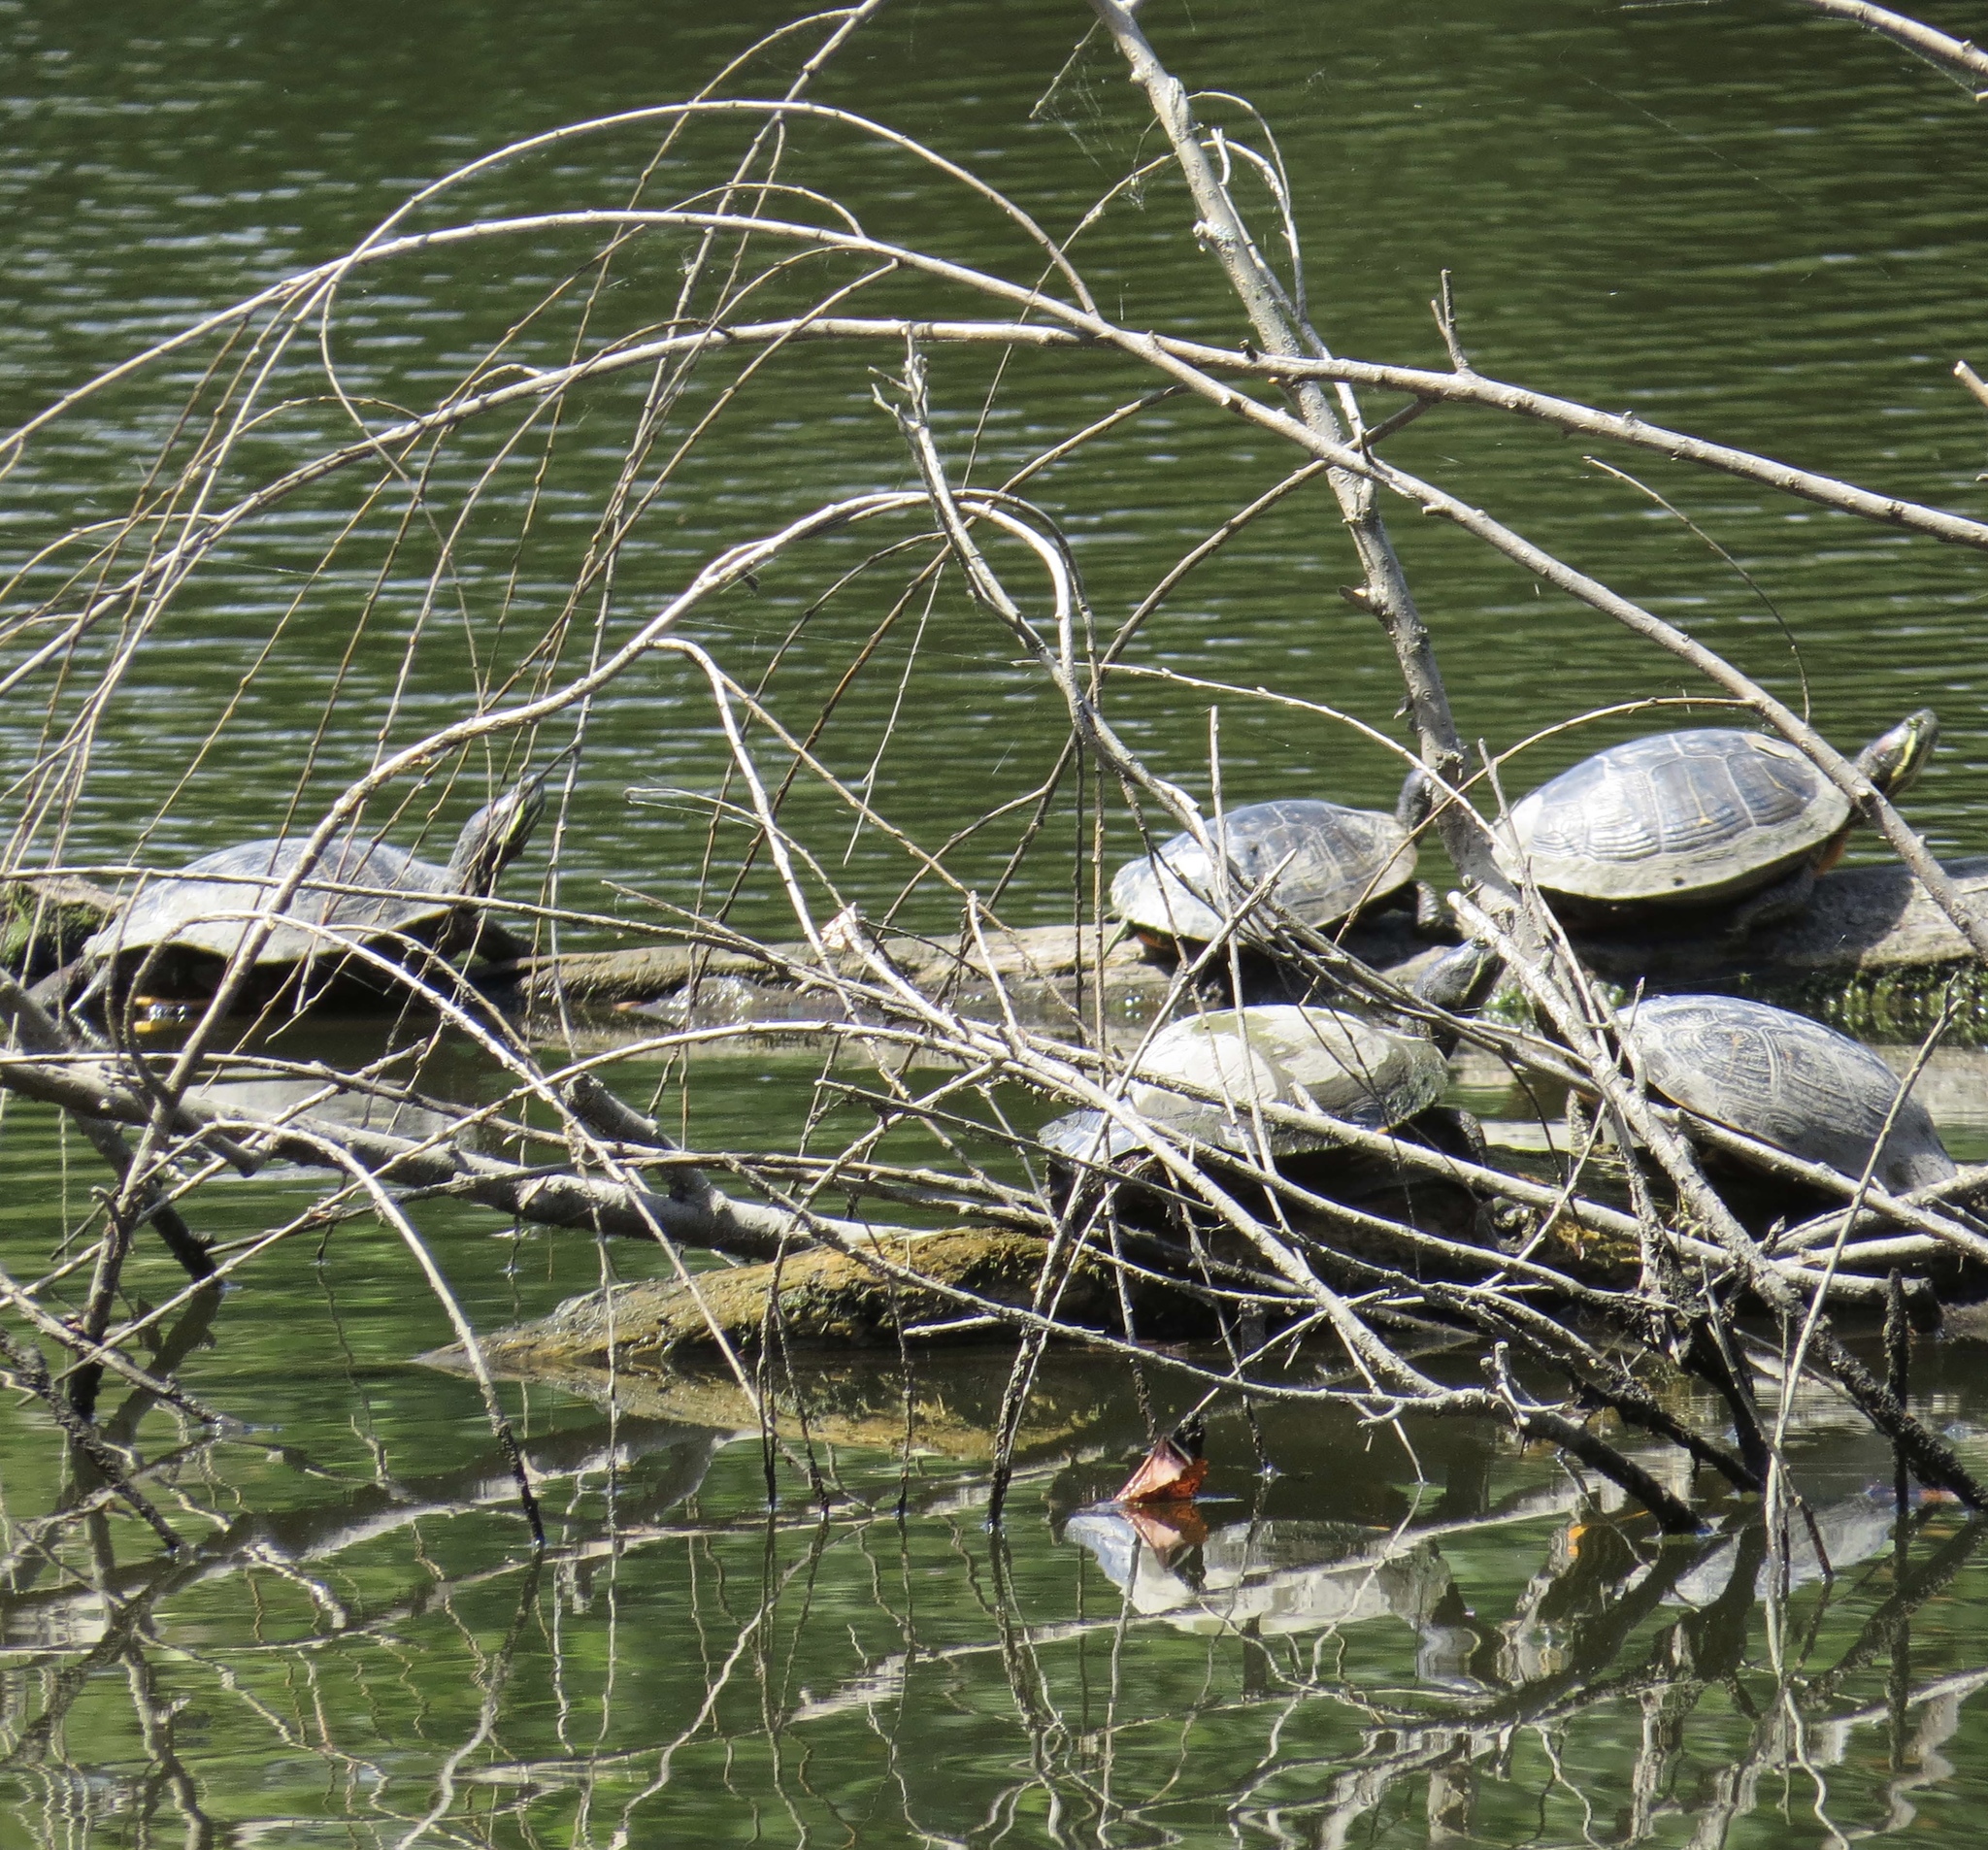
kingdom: Animalia
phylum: Chordata
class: Testudines
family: Emydidae
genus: Trachemys
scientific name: Trachemys scripta
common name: Slider
